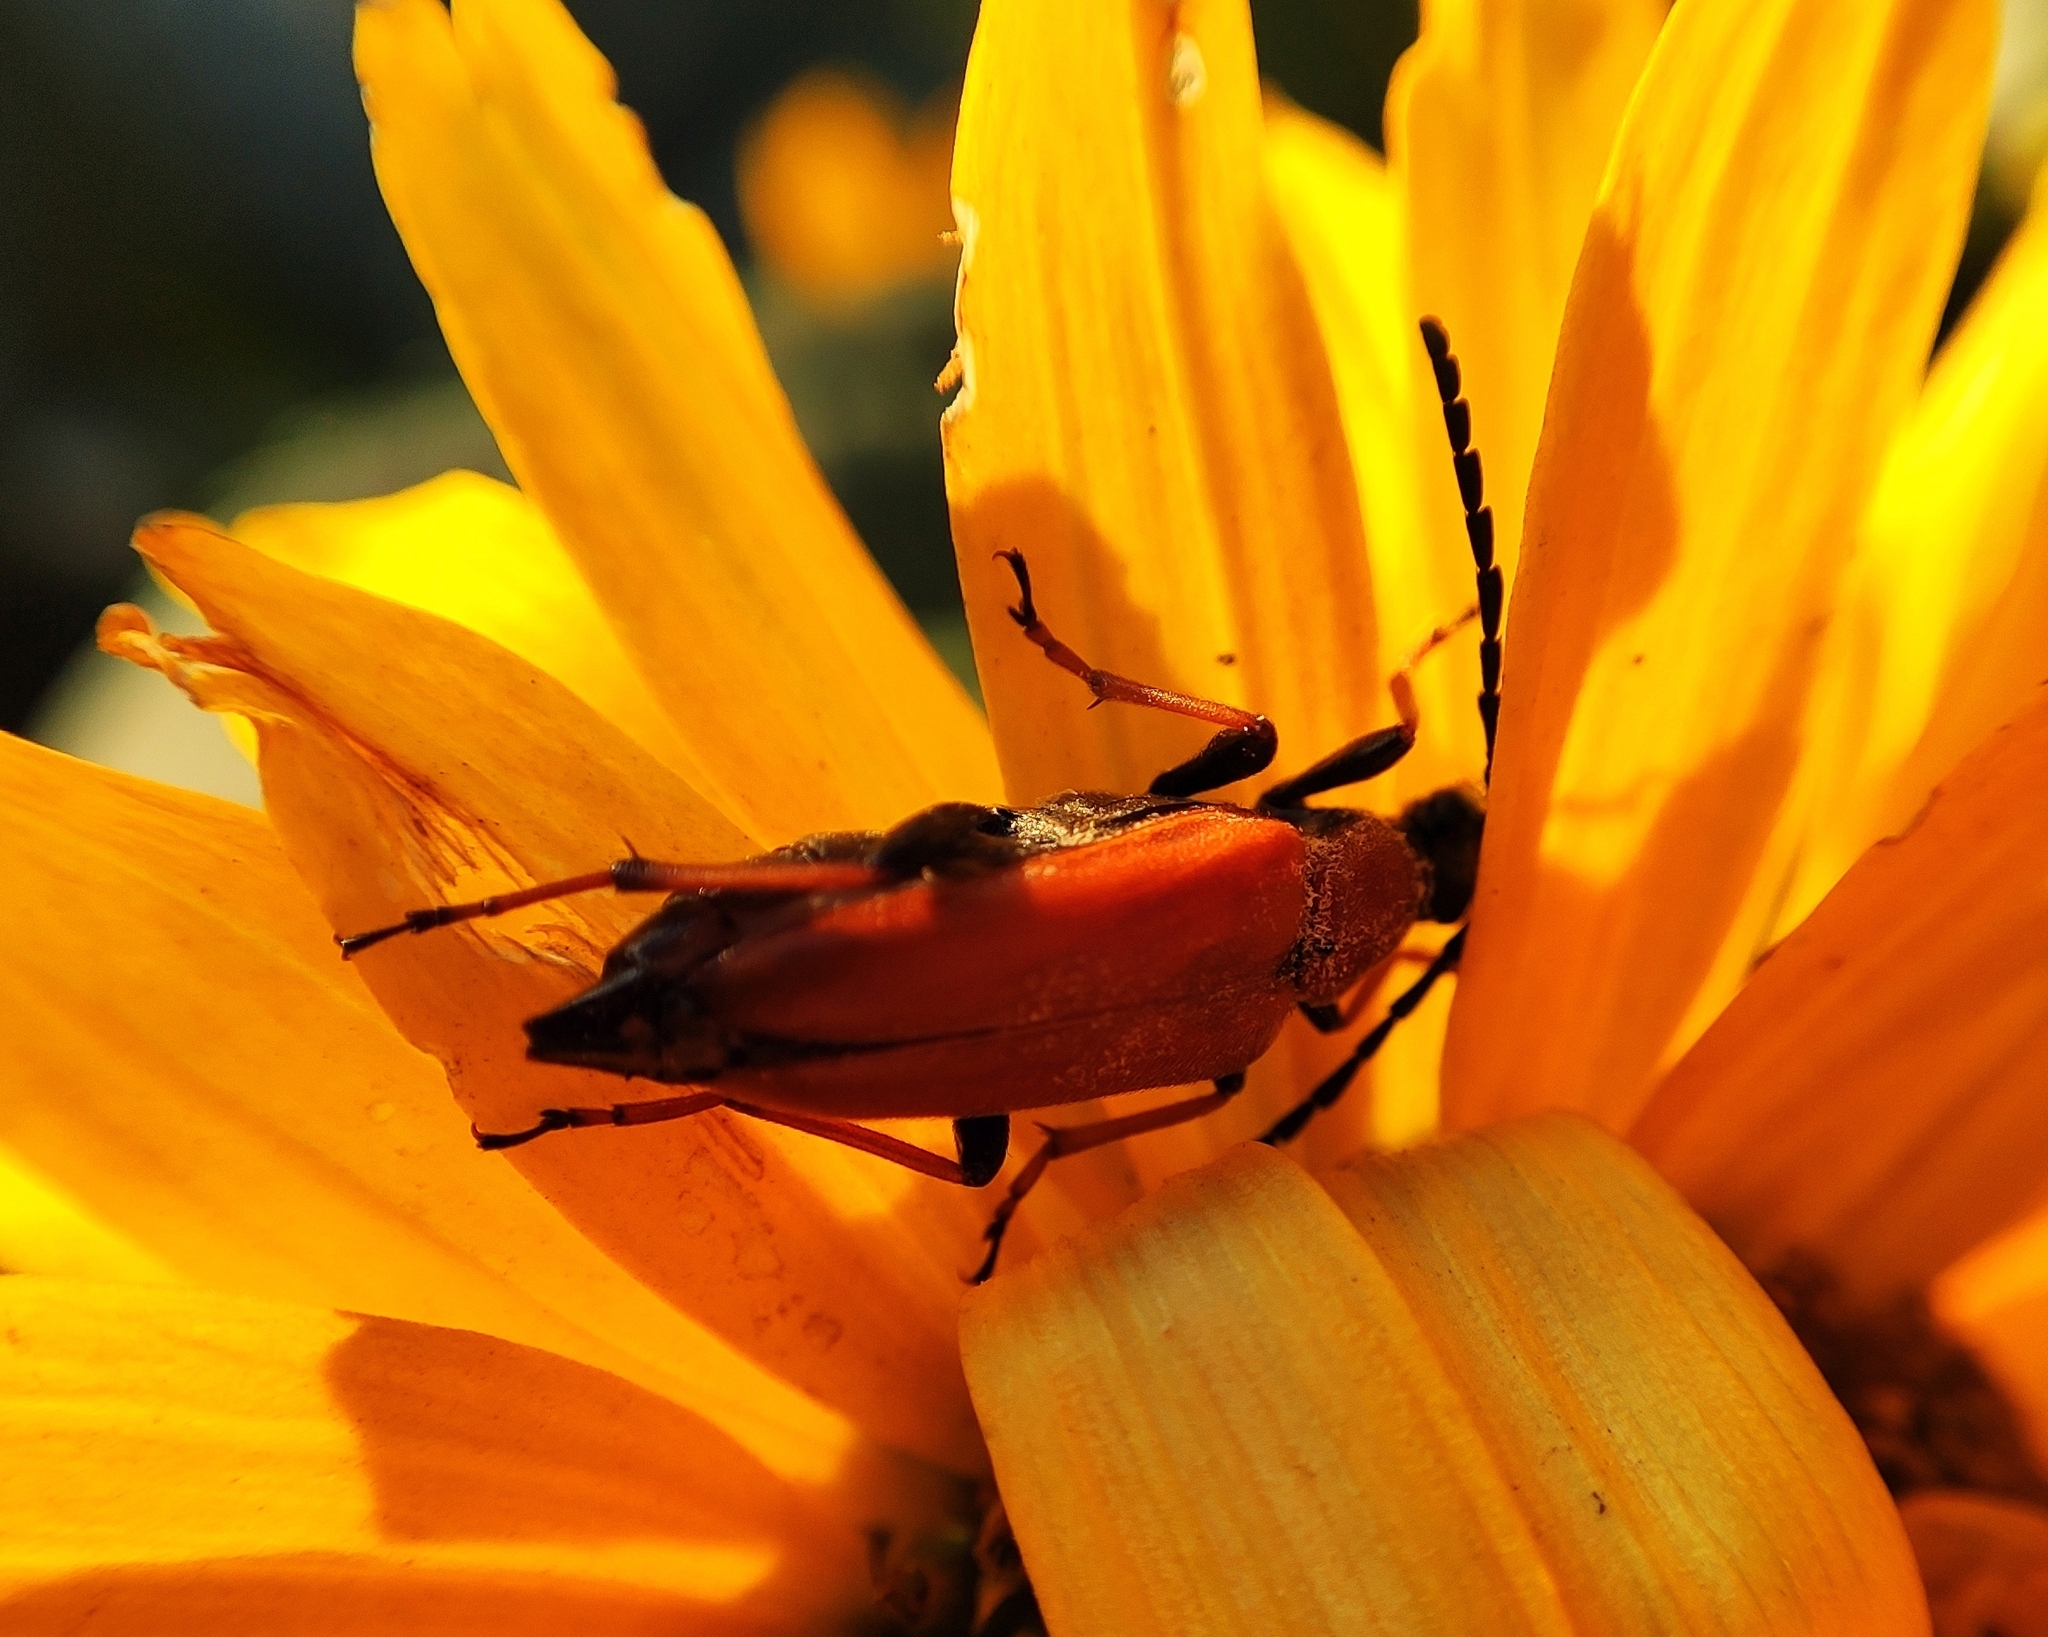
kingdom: Animalia
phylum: Arthropoda
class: Insecta
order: Coleoptera
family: Cerambycidae
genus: Stictoleptura
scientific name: Stictoleptura rubra
